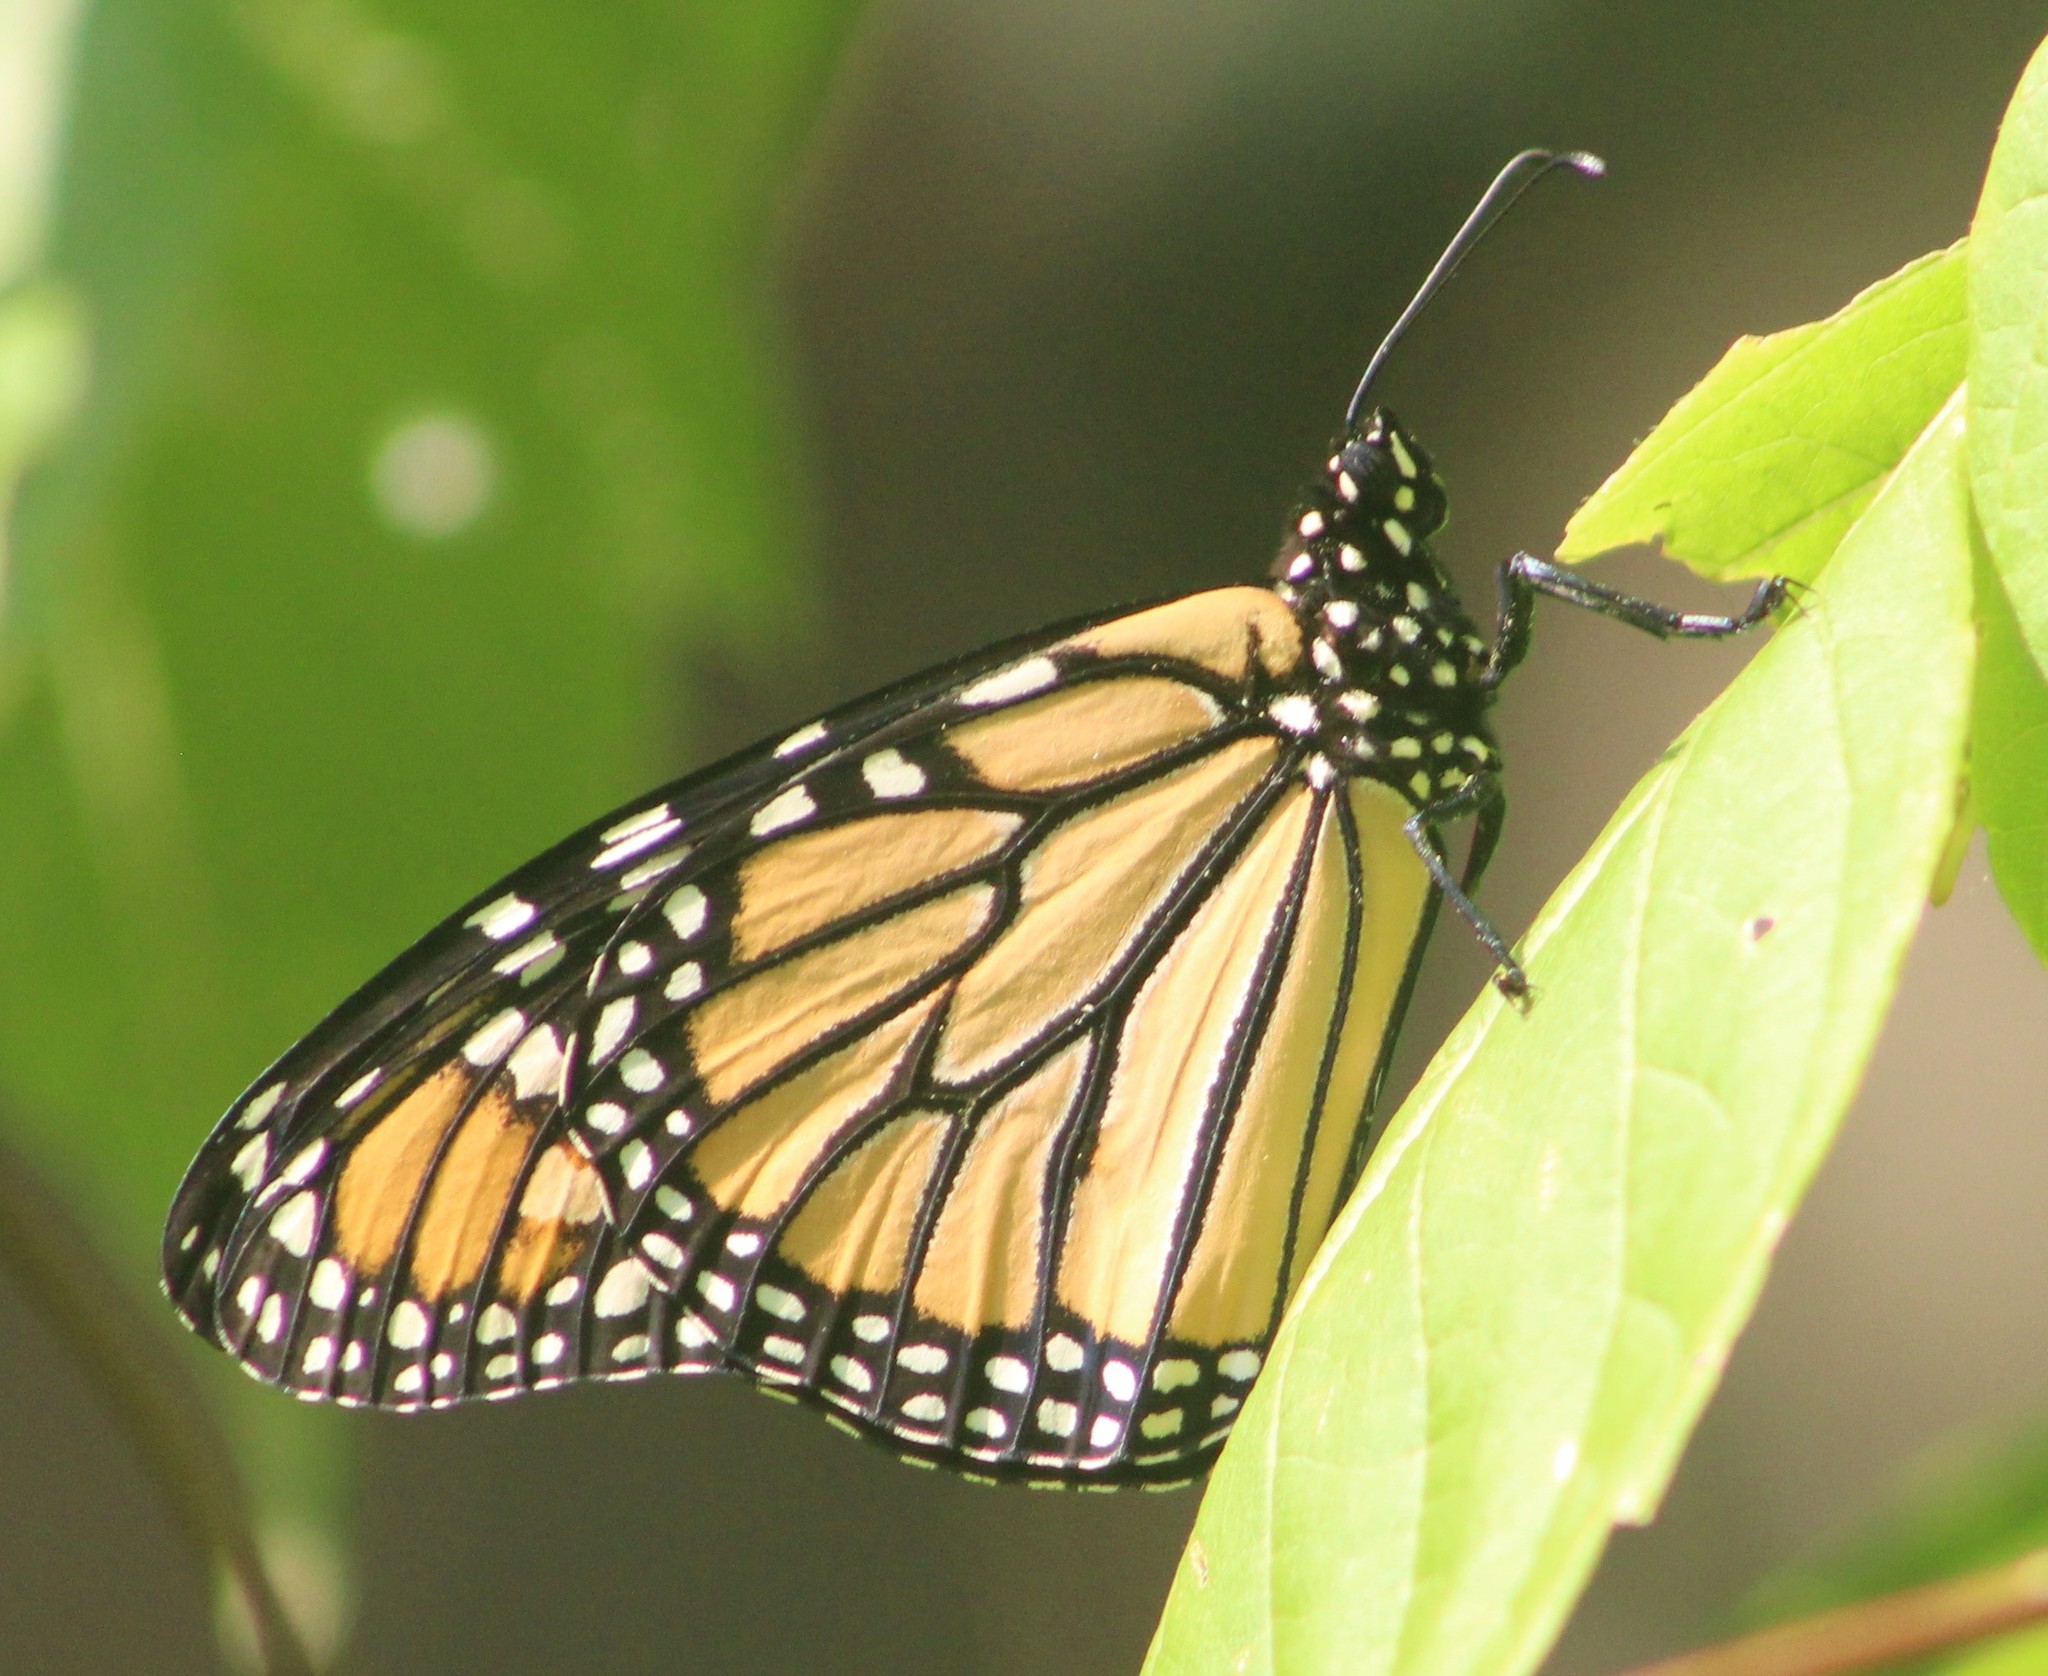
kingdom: Animalia
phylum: Arthropoda
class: Insecta
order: Lepidoptera
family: Nymphalidae
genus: Danaus
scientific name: Danaus plexippus
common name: Monarch
